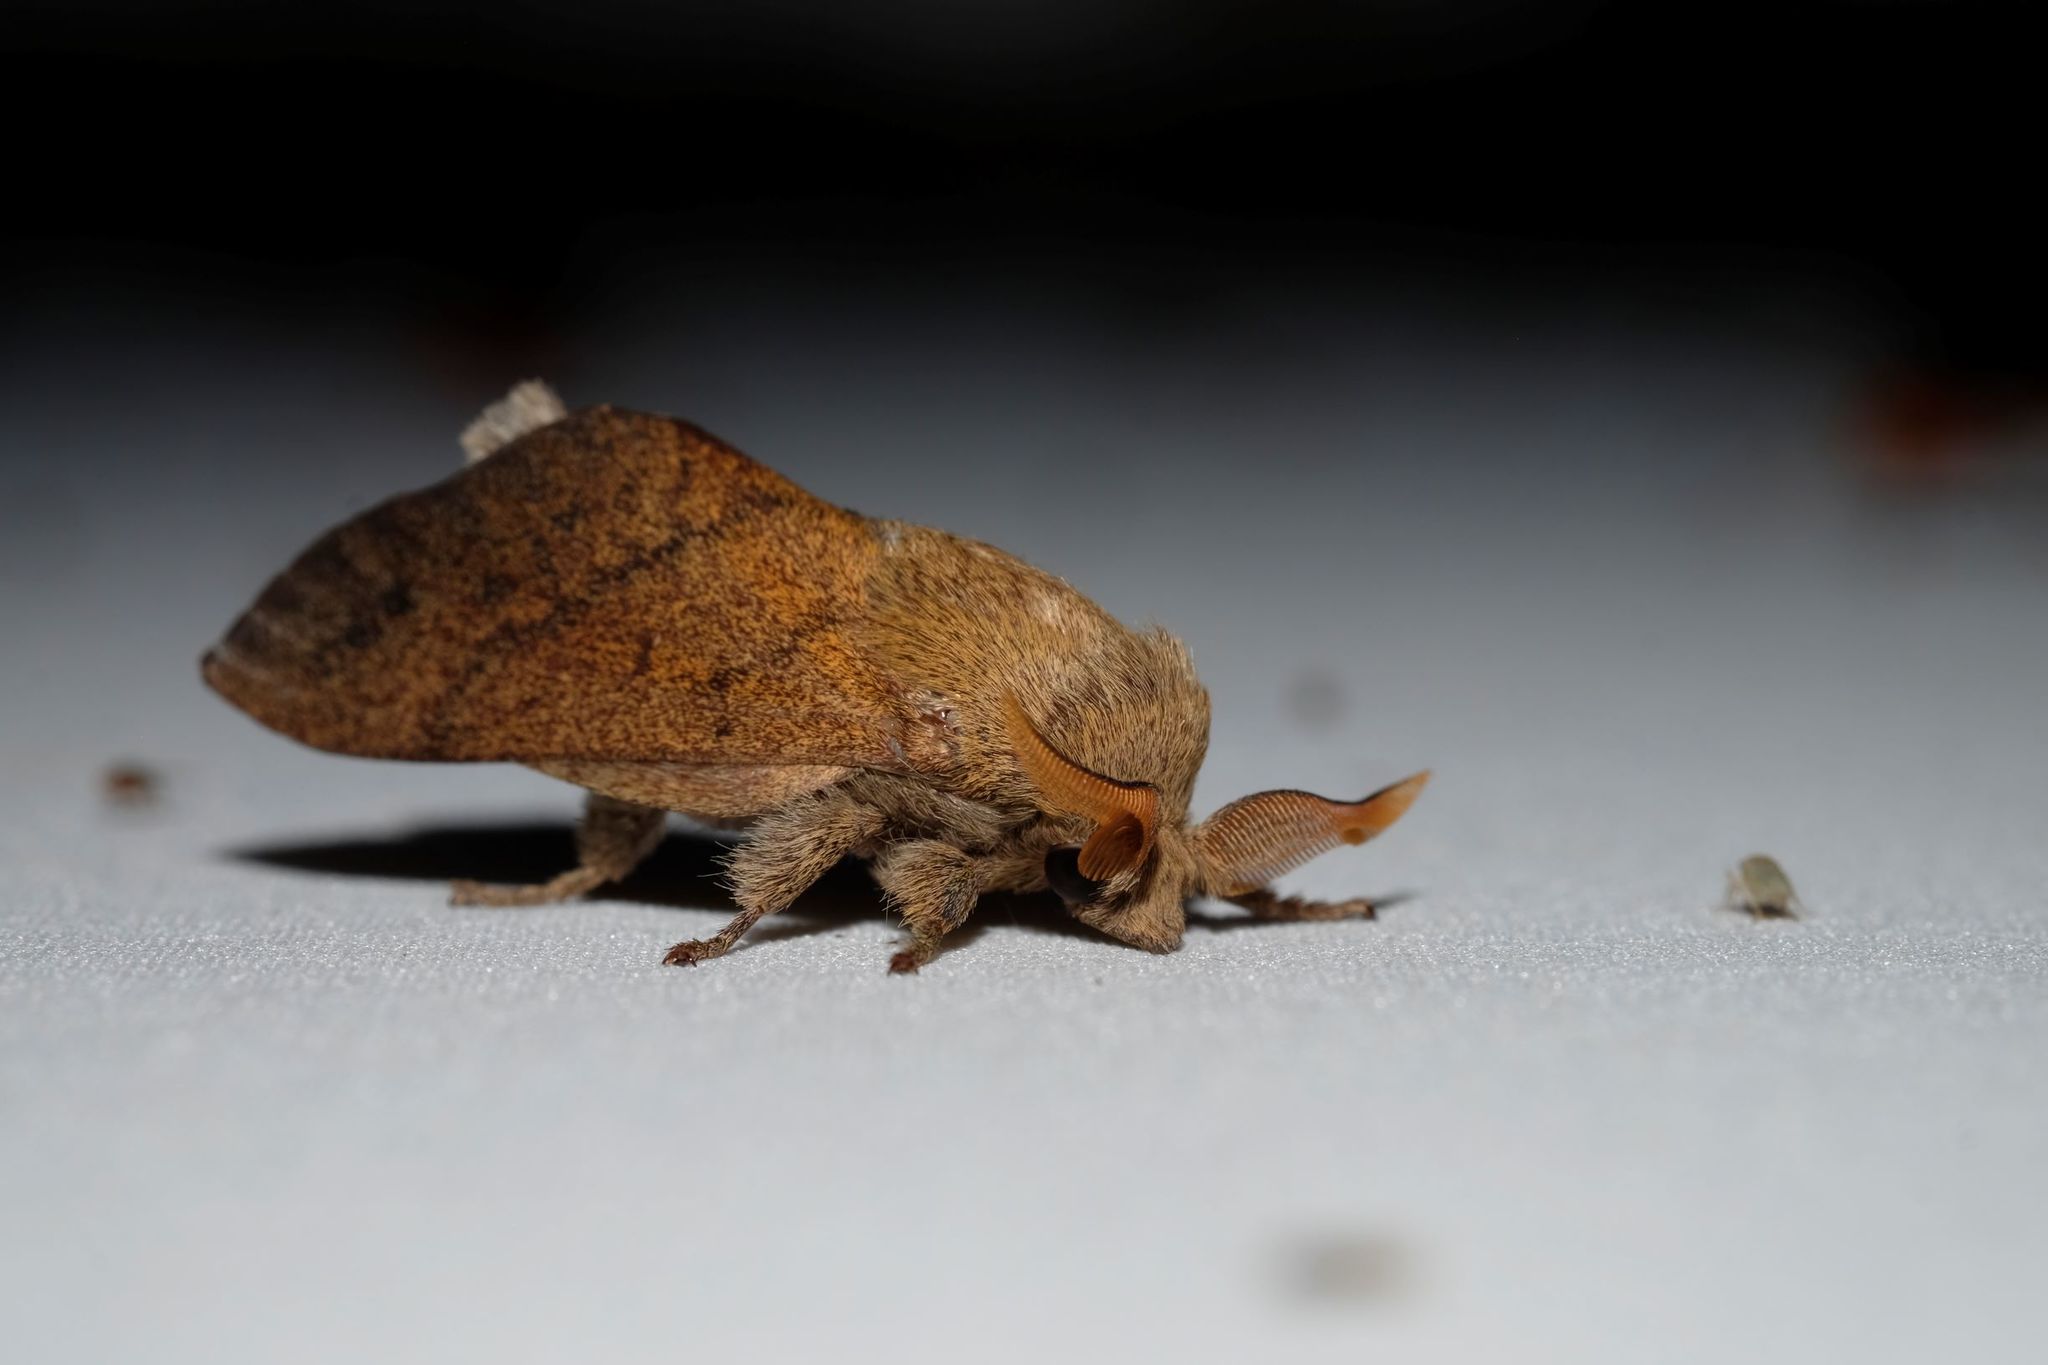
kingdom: Animalia
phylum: Arthropoda
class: Insecta
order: Lepidoptera
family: Lasiocampidae
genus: Entometa
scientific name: Entometa fervens
